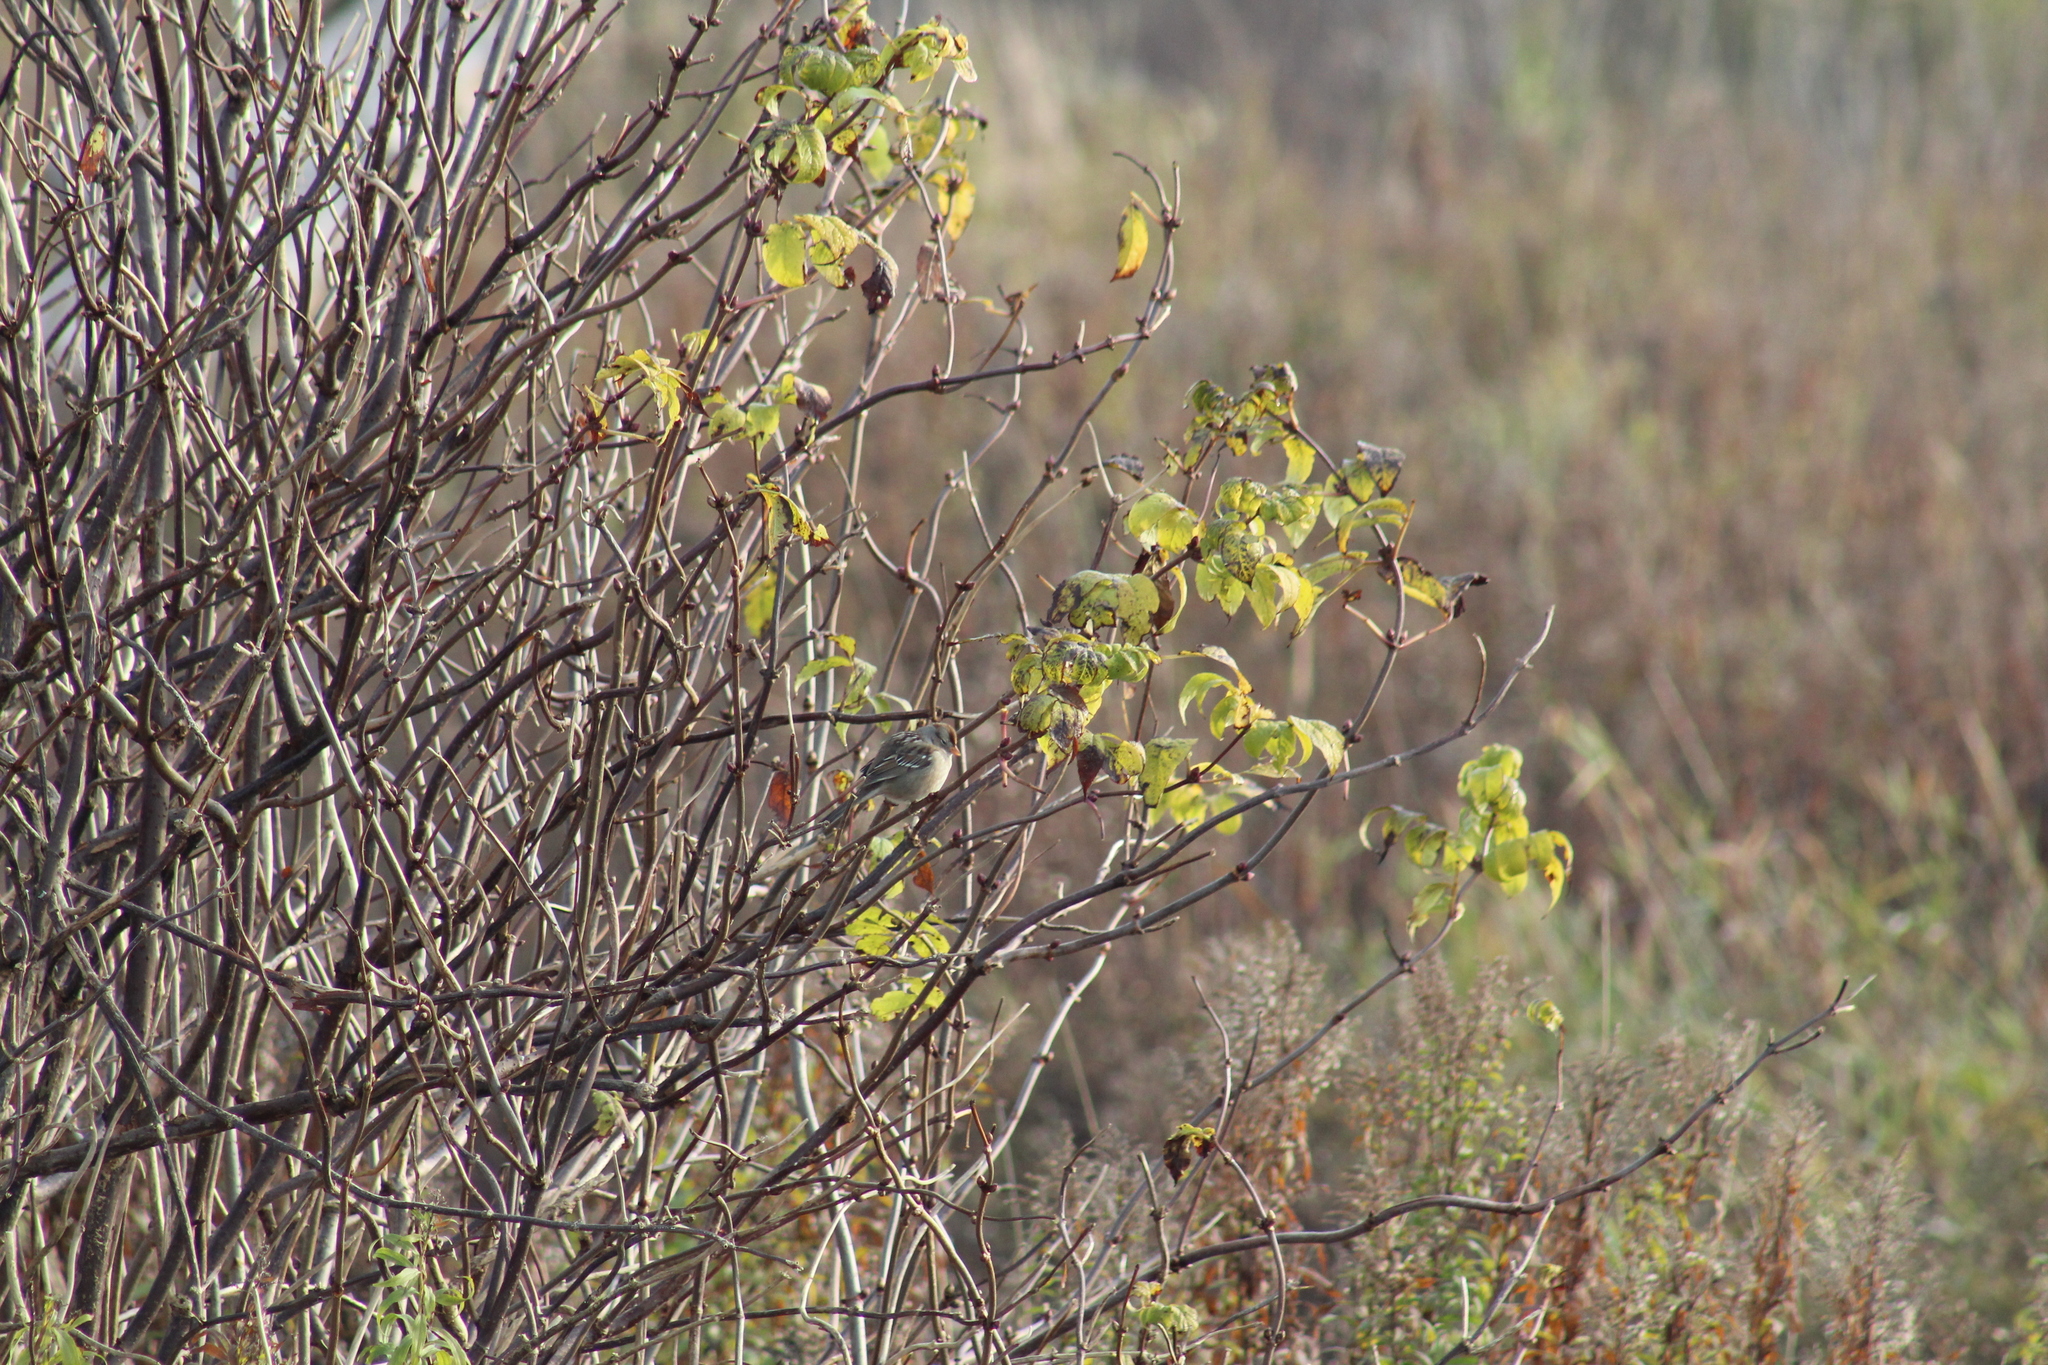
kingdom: Animalia
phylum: Chordata
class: Aves
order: Passeriformes
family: Passerellidae
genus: Zonotrichia
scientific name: Zonotrichia leucophrys
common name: White-crowned sparrow
